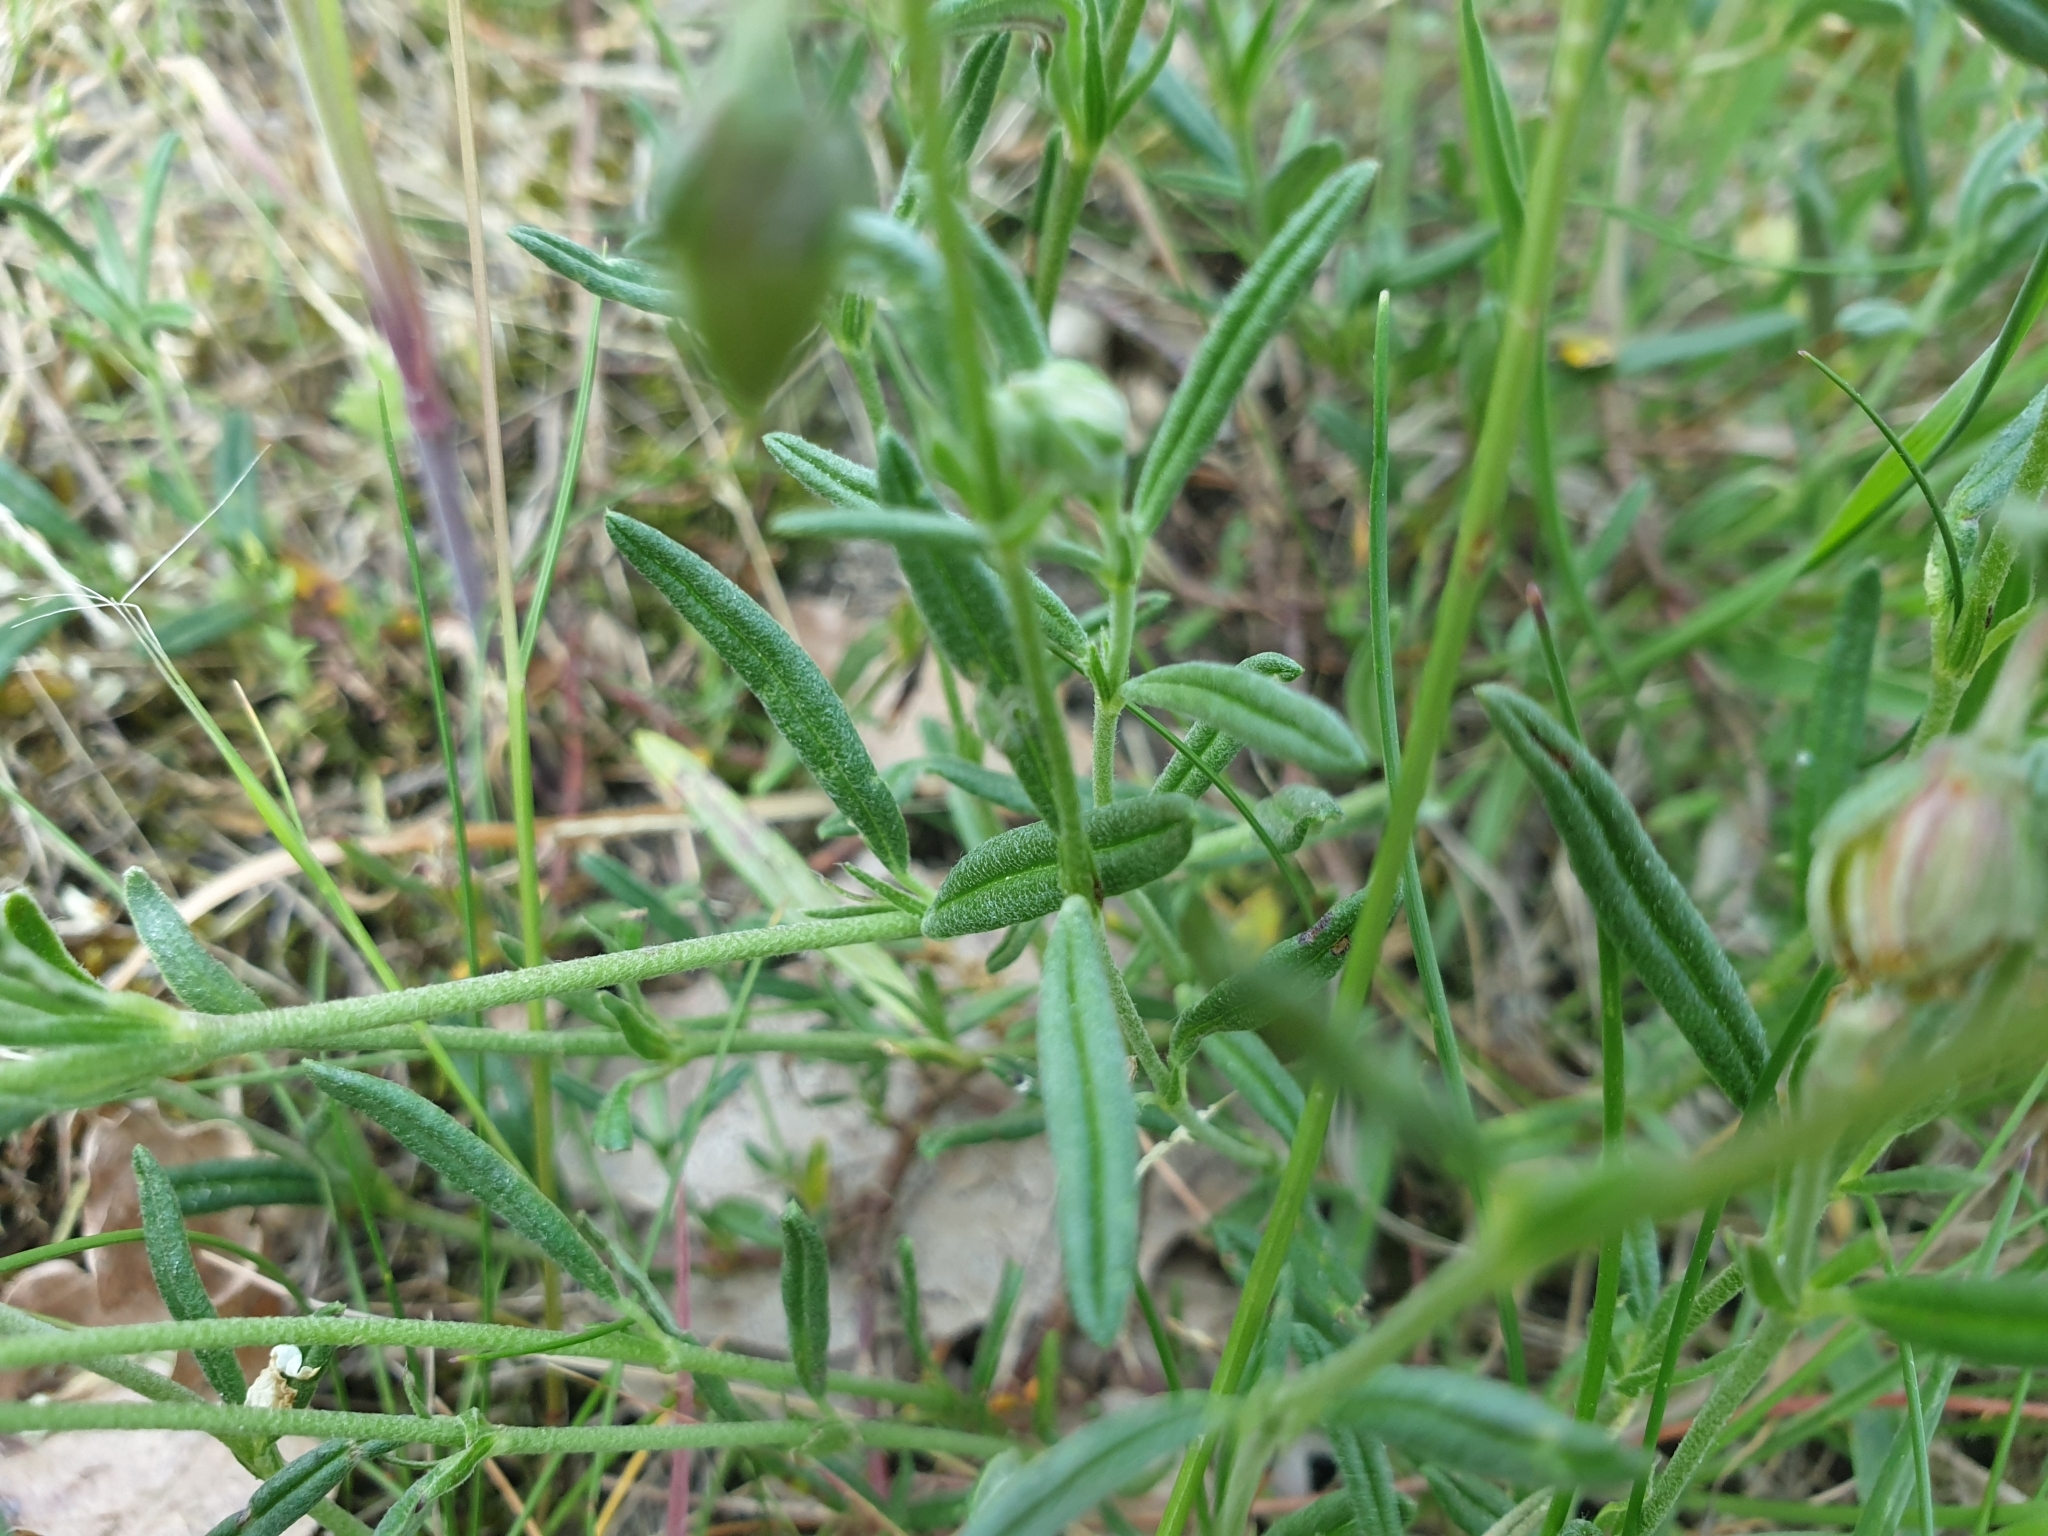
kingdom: Plantae
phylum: Tracheophyta
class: Magnoliopsida
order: Malvales
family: Cistaceae
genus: Helianthemum
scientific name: Helianthemum apenninum
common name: White rock-rose
